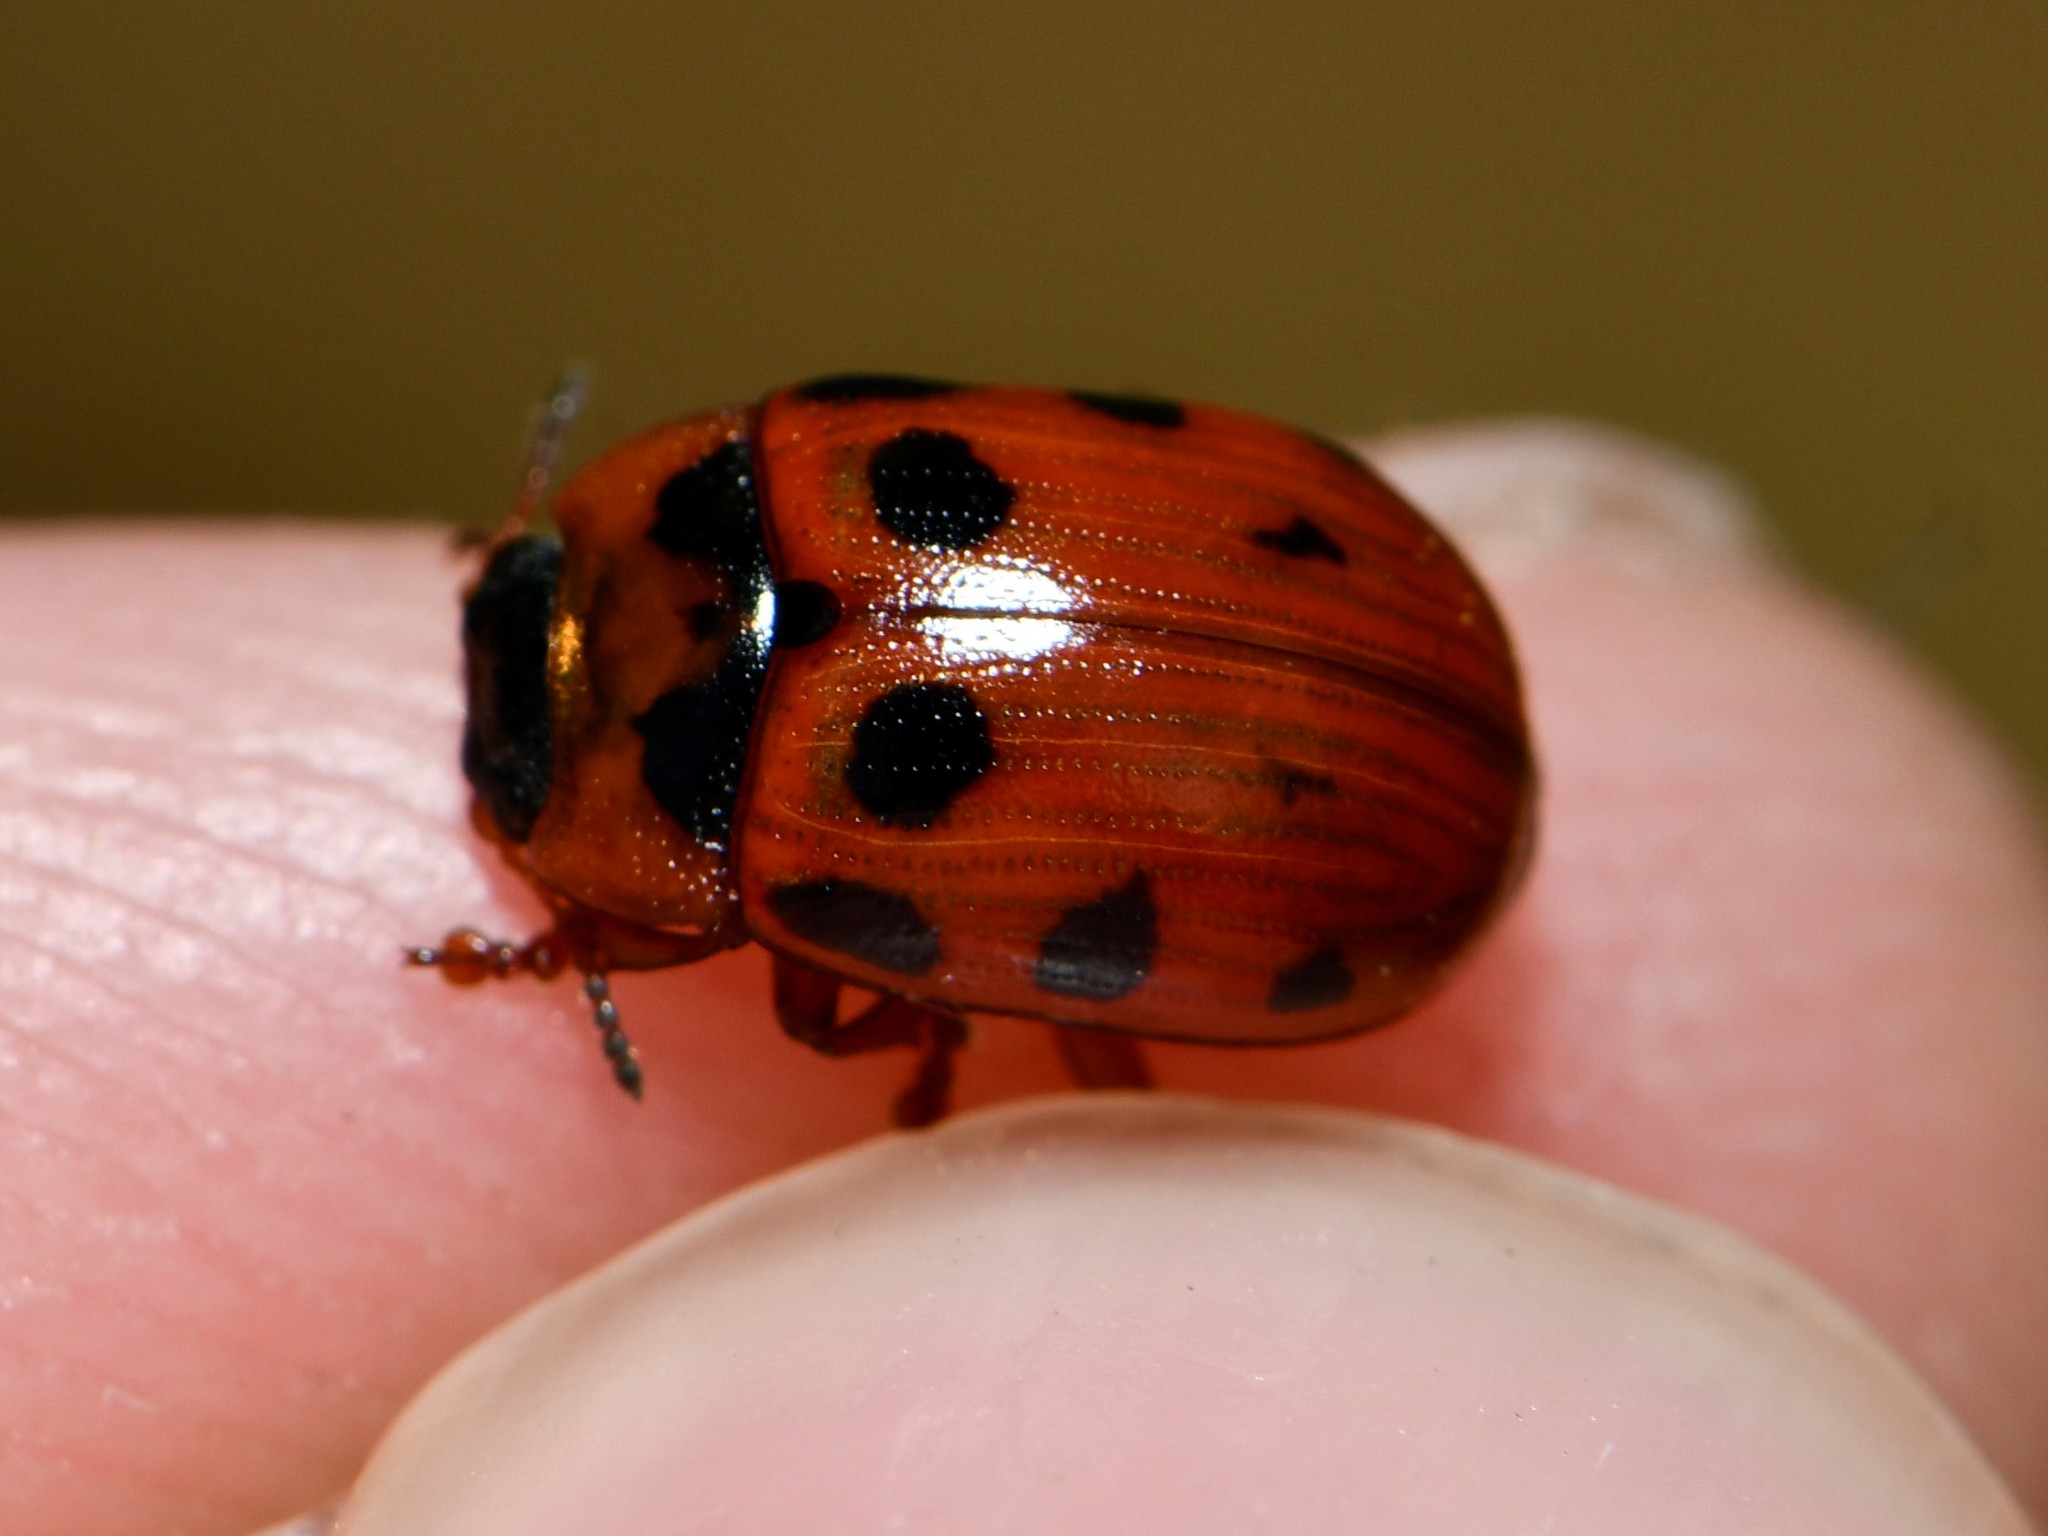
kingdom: Animalia
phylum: Arthropoda
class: Insecta
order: Coleoptera
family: Chrysomelidae
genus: Gonioctena
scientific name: Gonioctena decemnotata
